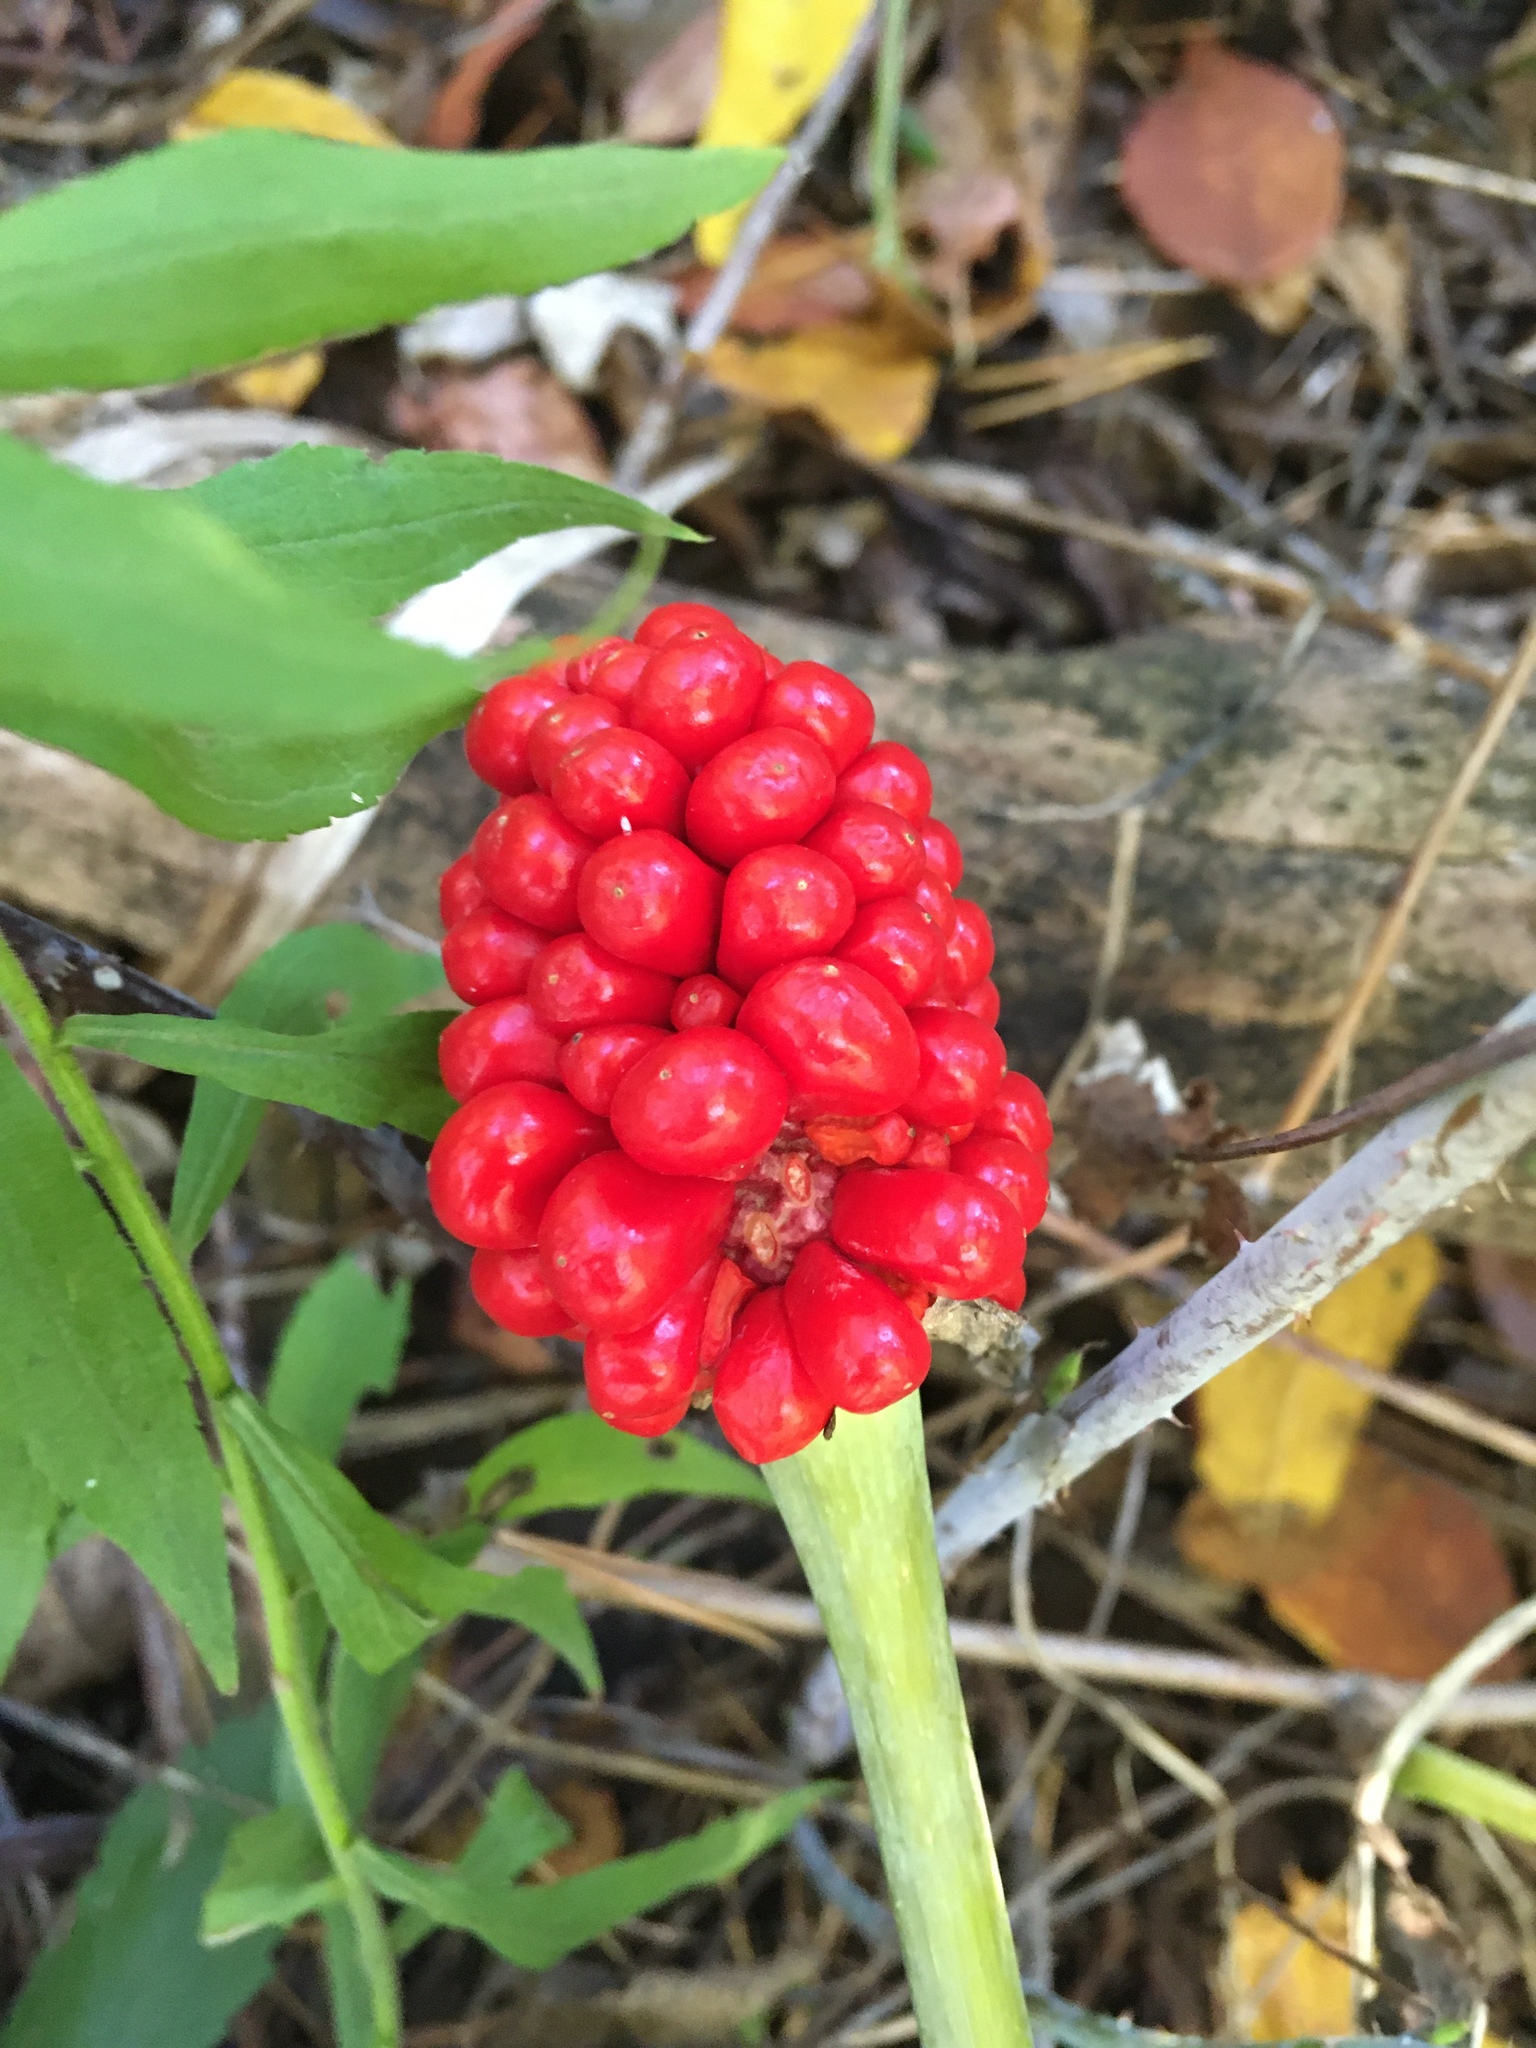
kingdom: Plantae
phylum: Tracheophyta
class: Liliopsida
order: Alismatales
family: Araceae
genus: Arisaema
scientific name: Arisaema triphyllum
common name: Jack-in-the-pulpit
